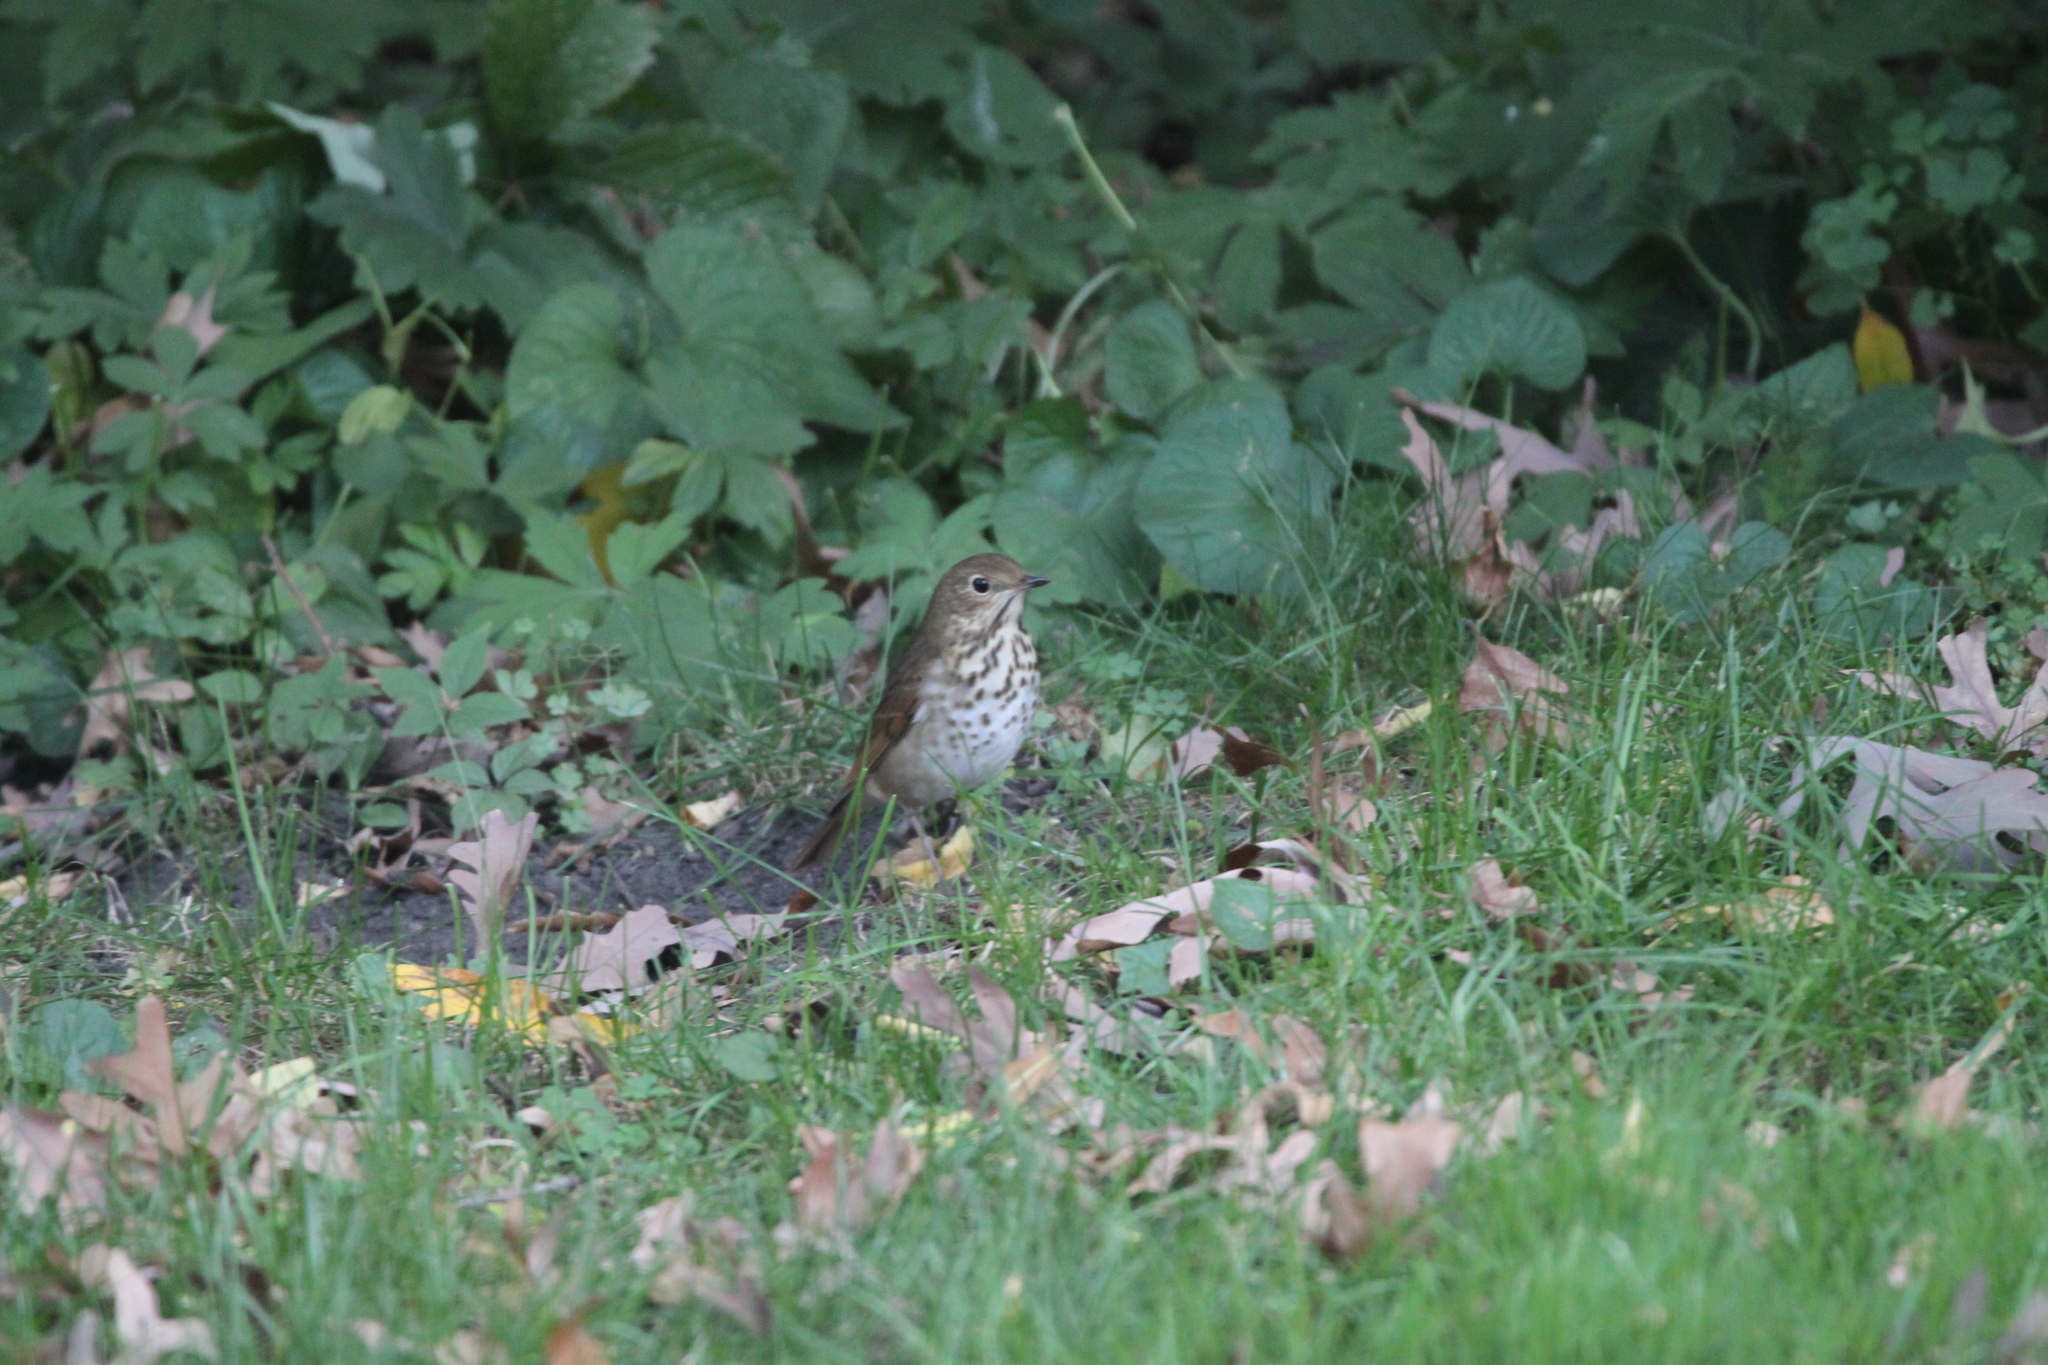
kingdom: Animalia
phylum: Chordata
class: Aves
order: Passeriformes
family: Turdidae
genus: Catharus
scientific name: Catharus guttatus
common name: Hermit thrush
